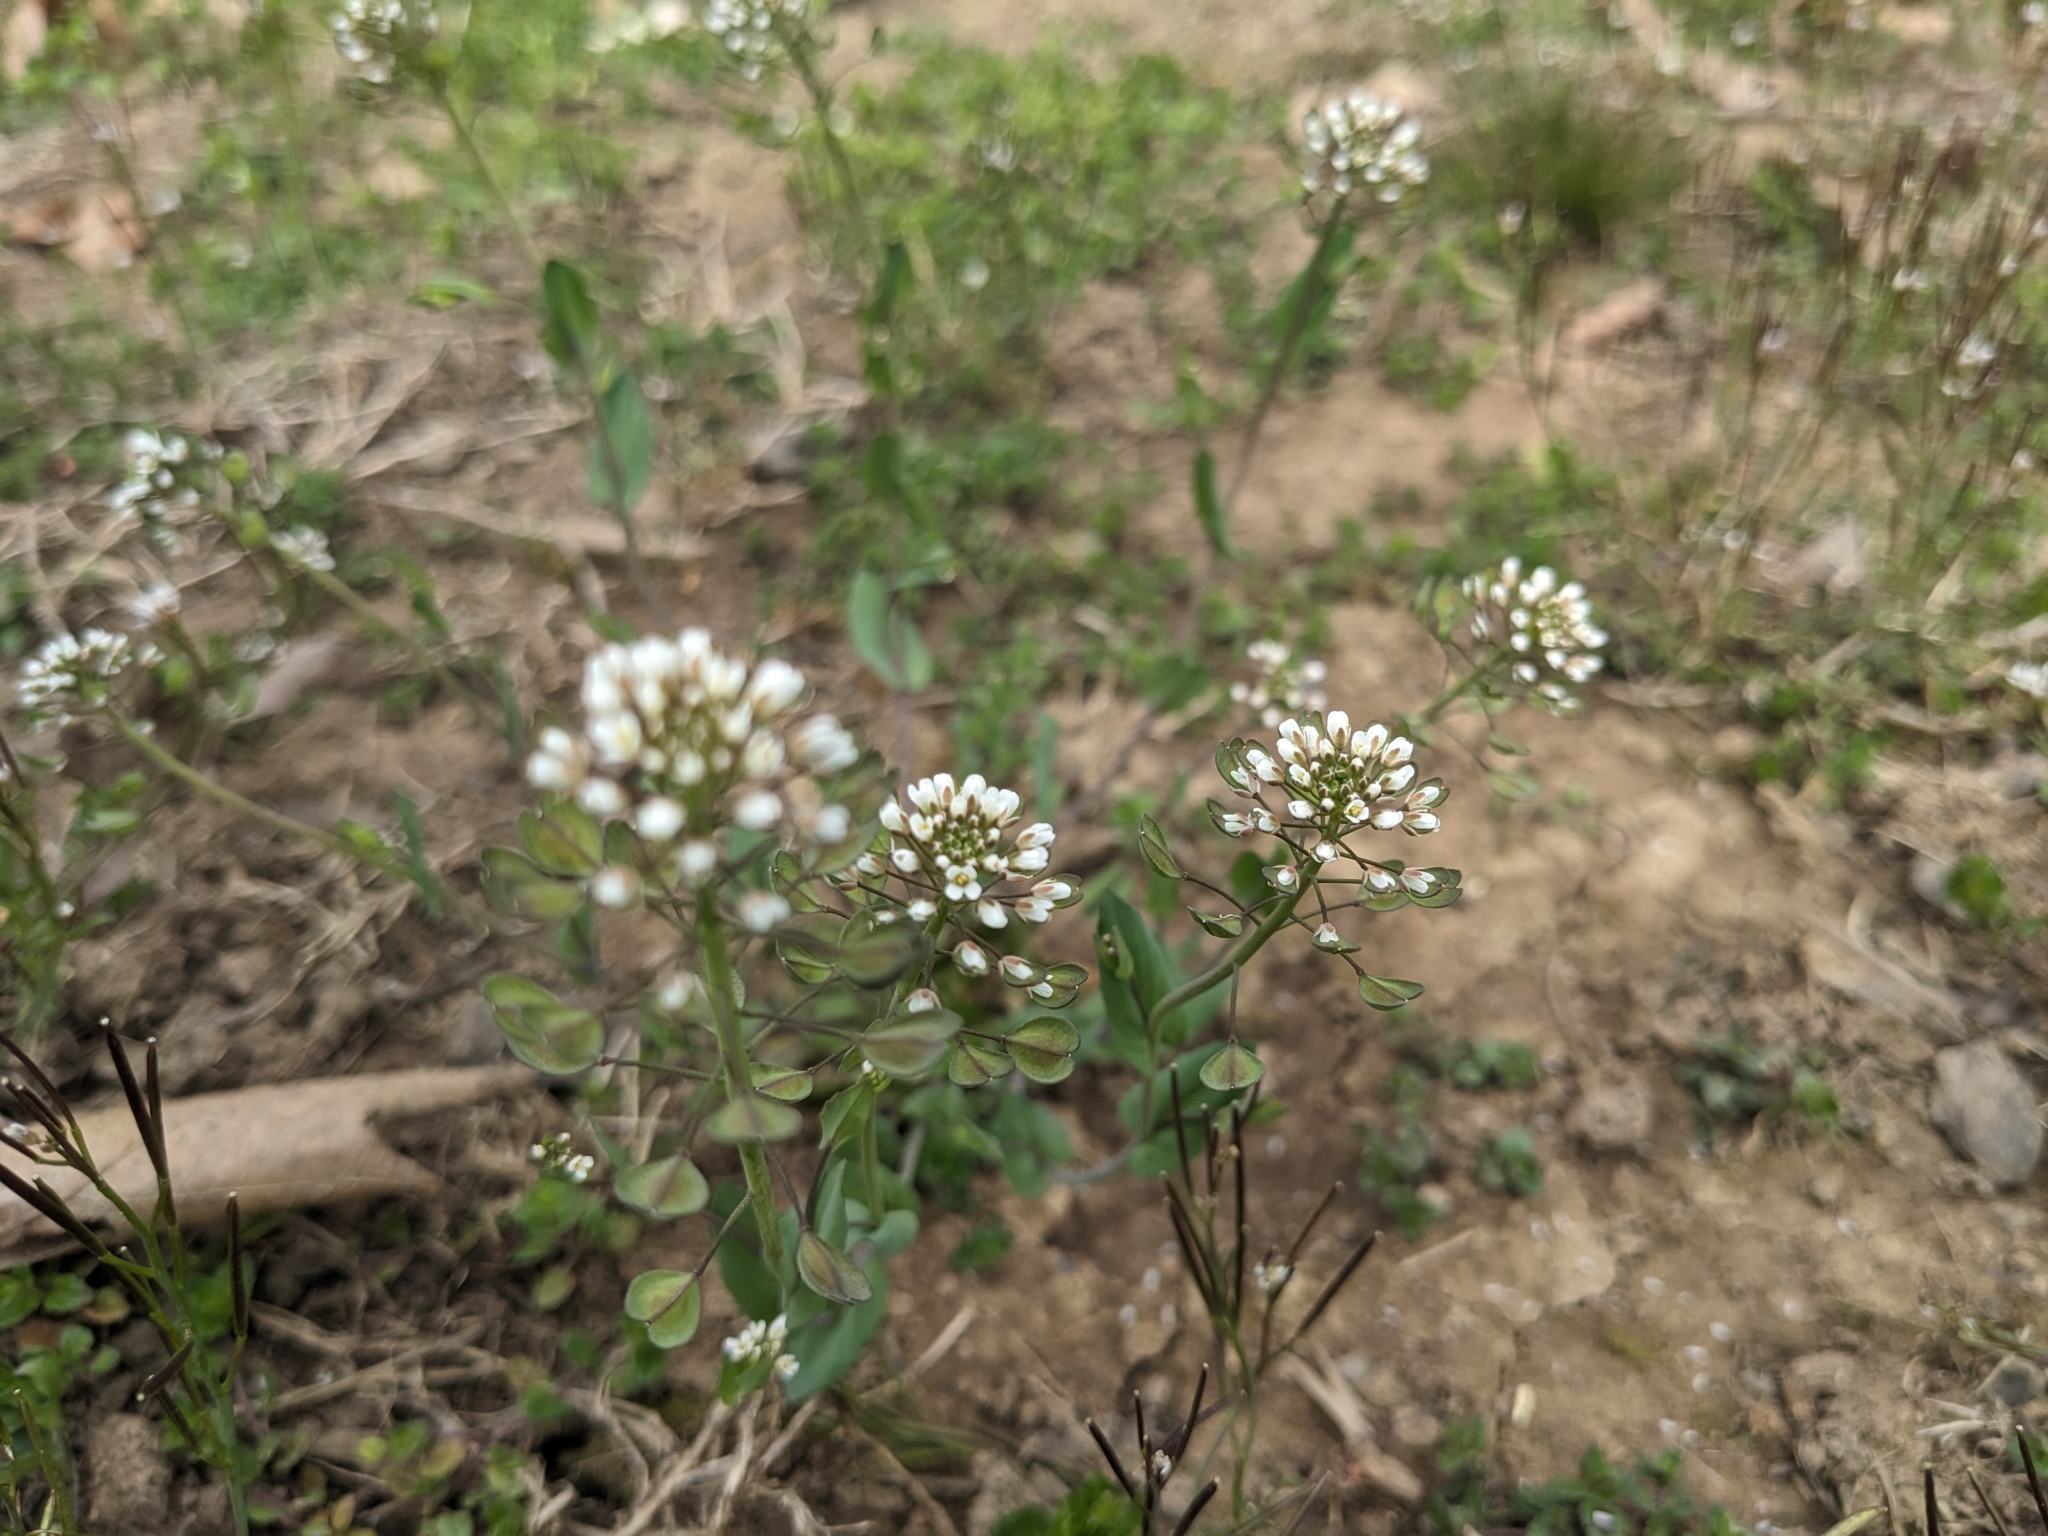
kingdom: Plantae
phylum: Tracheophyta
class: Magnoliopsida
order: Brassicales
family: Brassicaceae
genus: Noccaea
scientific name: Noccaea perfoliata
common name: Perfoliate pennycress
